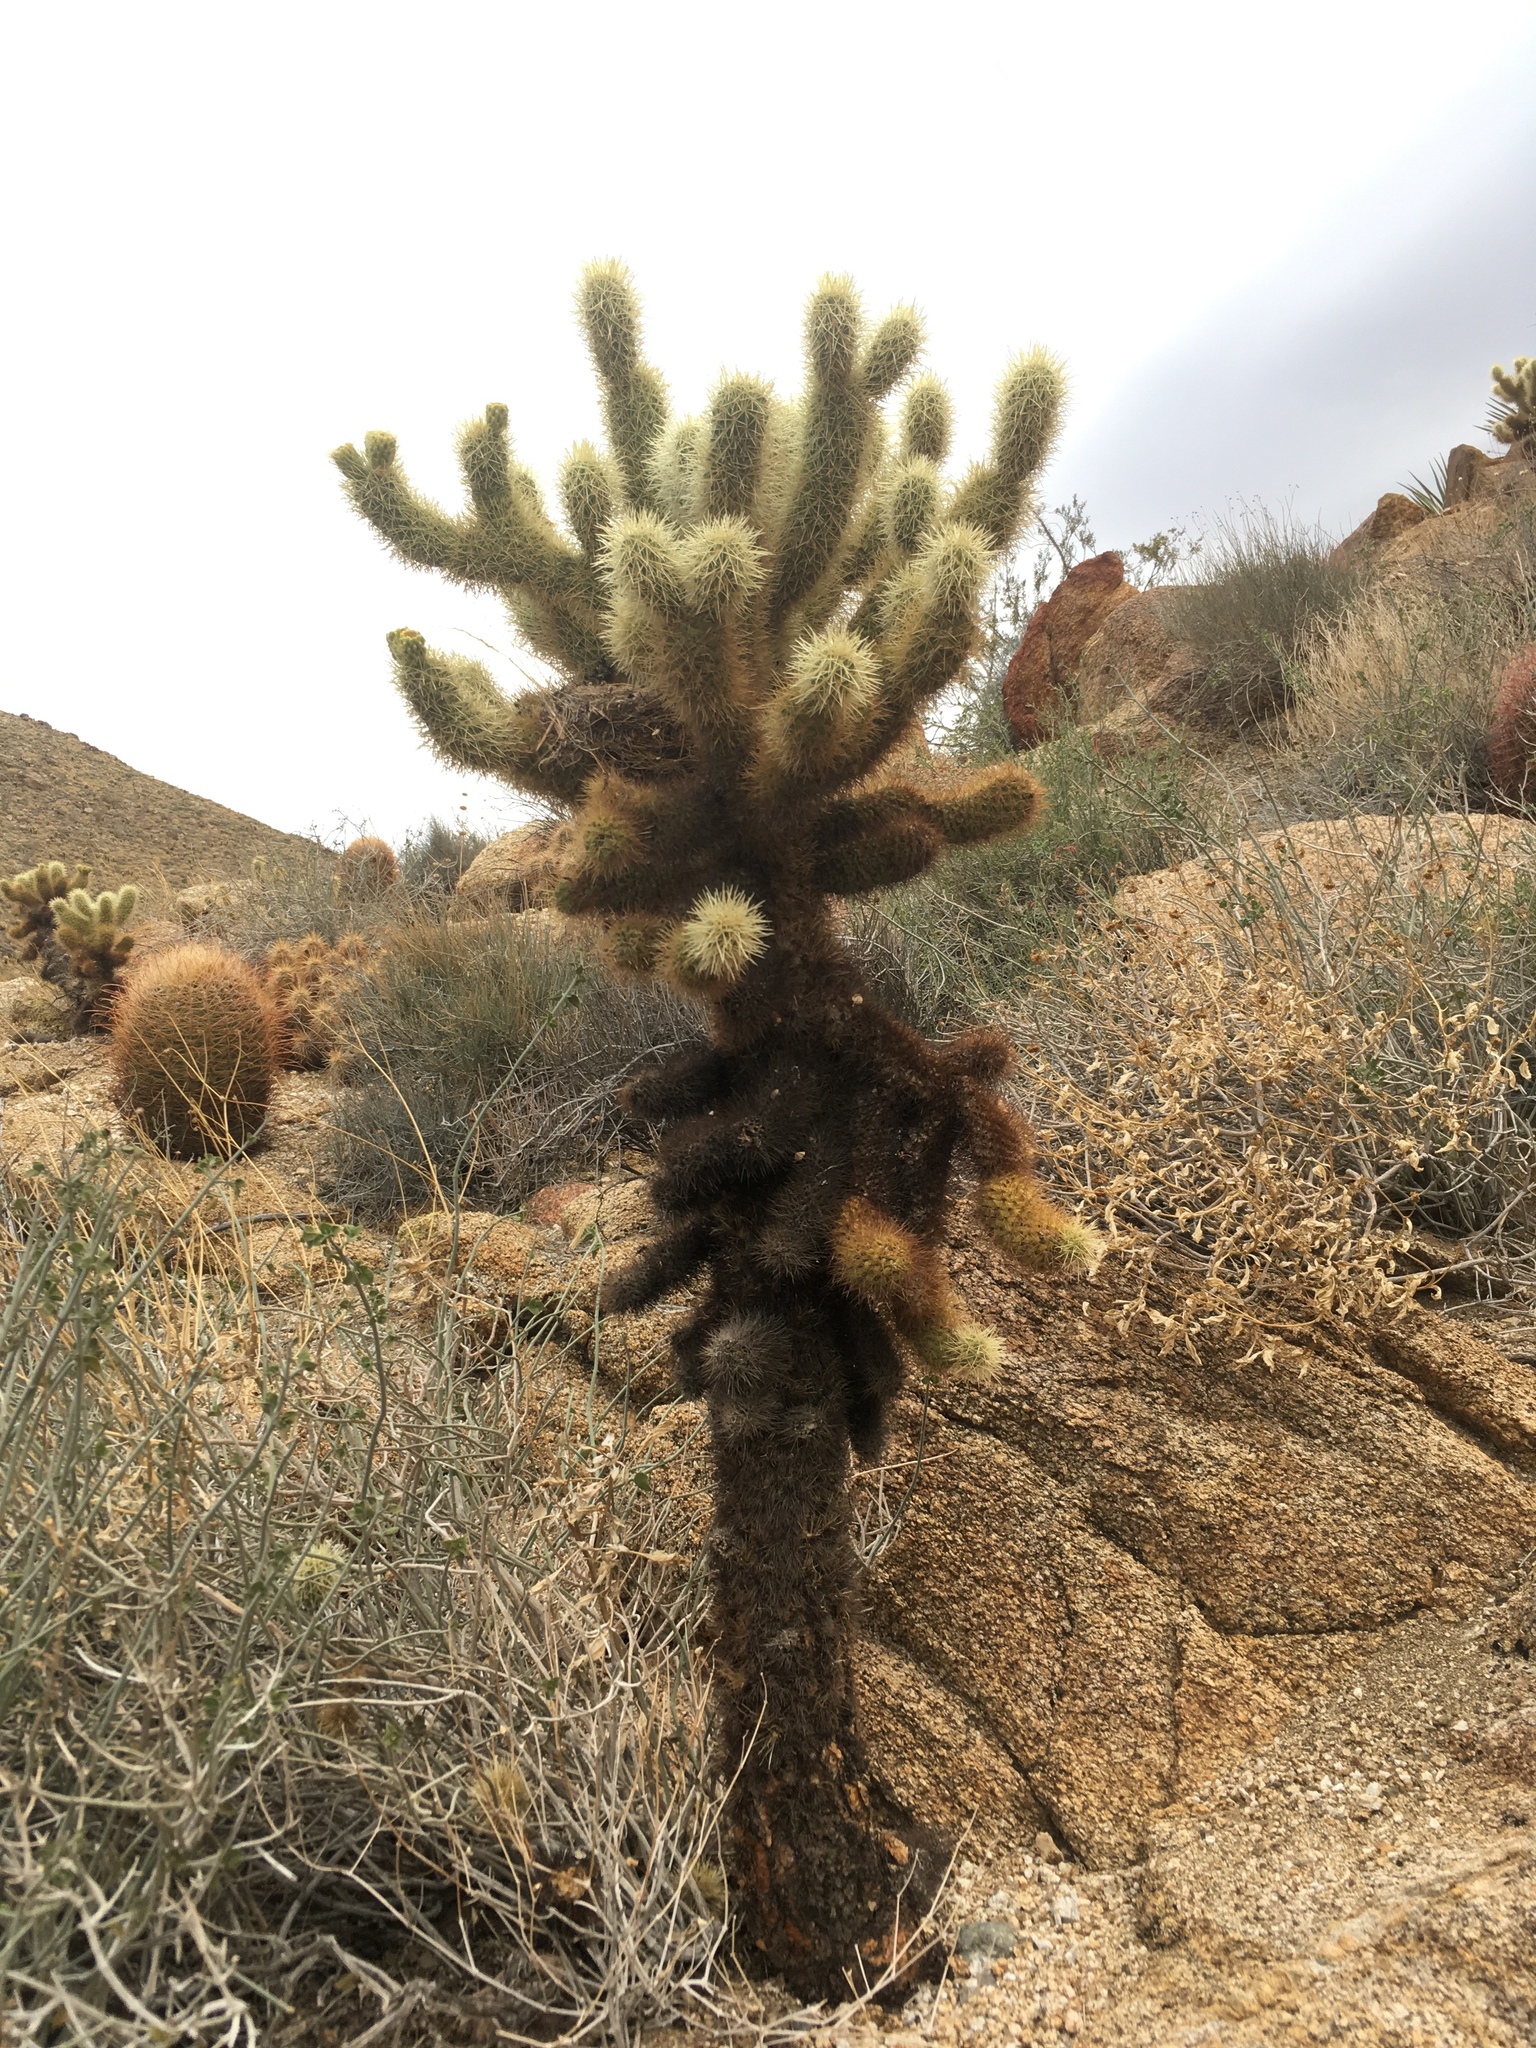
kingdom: Plantae
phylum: Tracheophyta
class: Magnoliopsida
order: Caryophyllales
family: Cactaceae
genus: Cylindropuntia
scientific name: Cylindropuntia fosbergii
